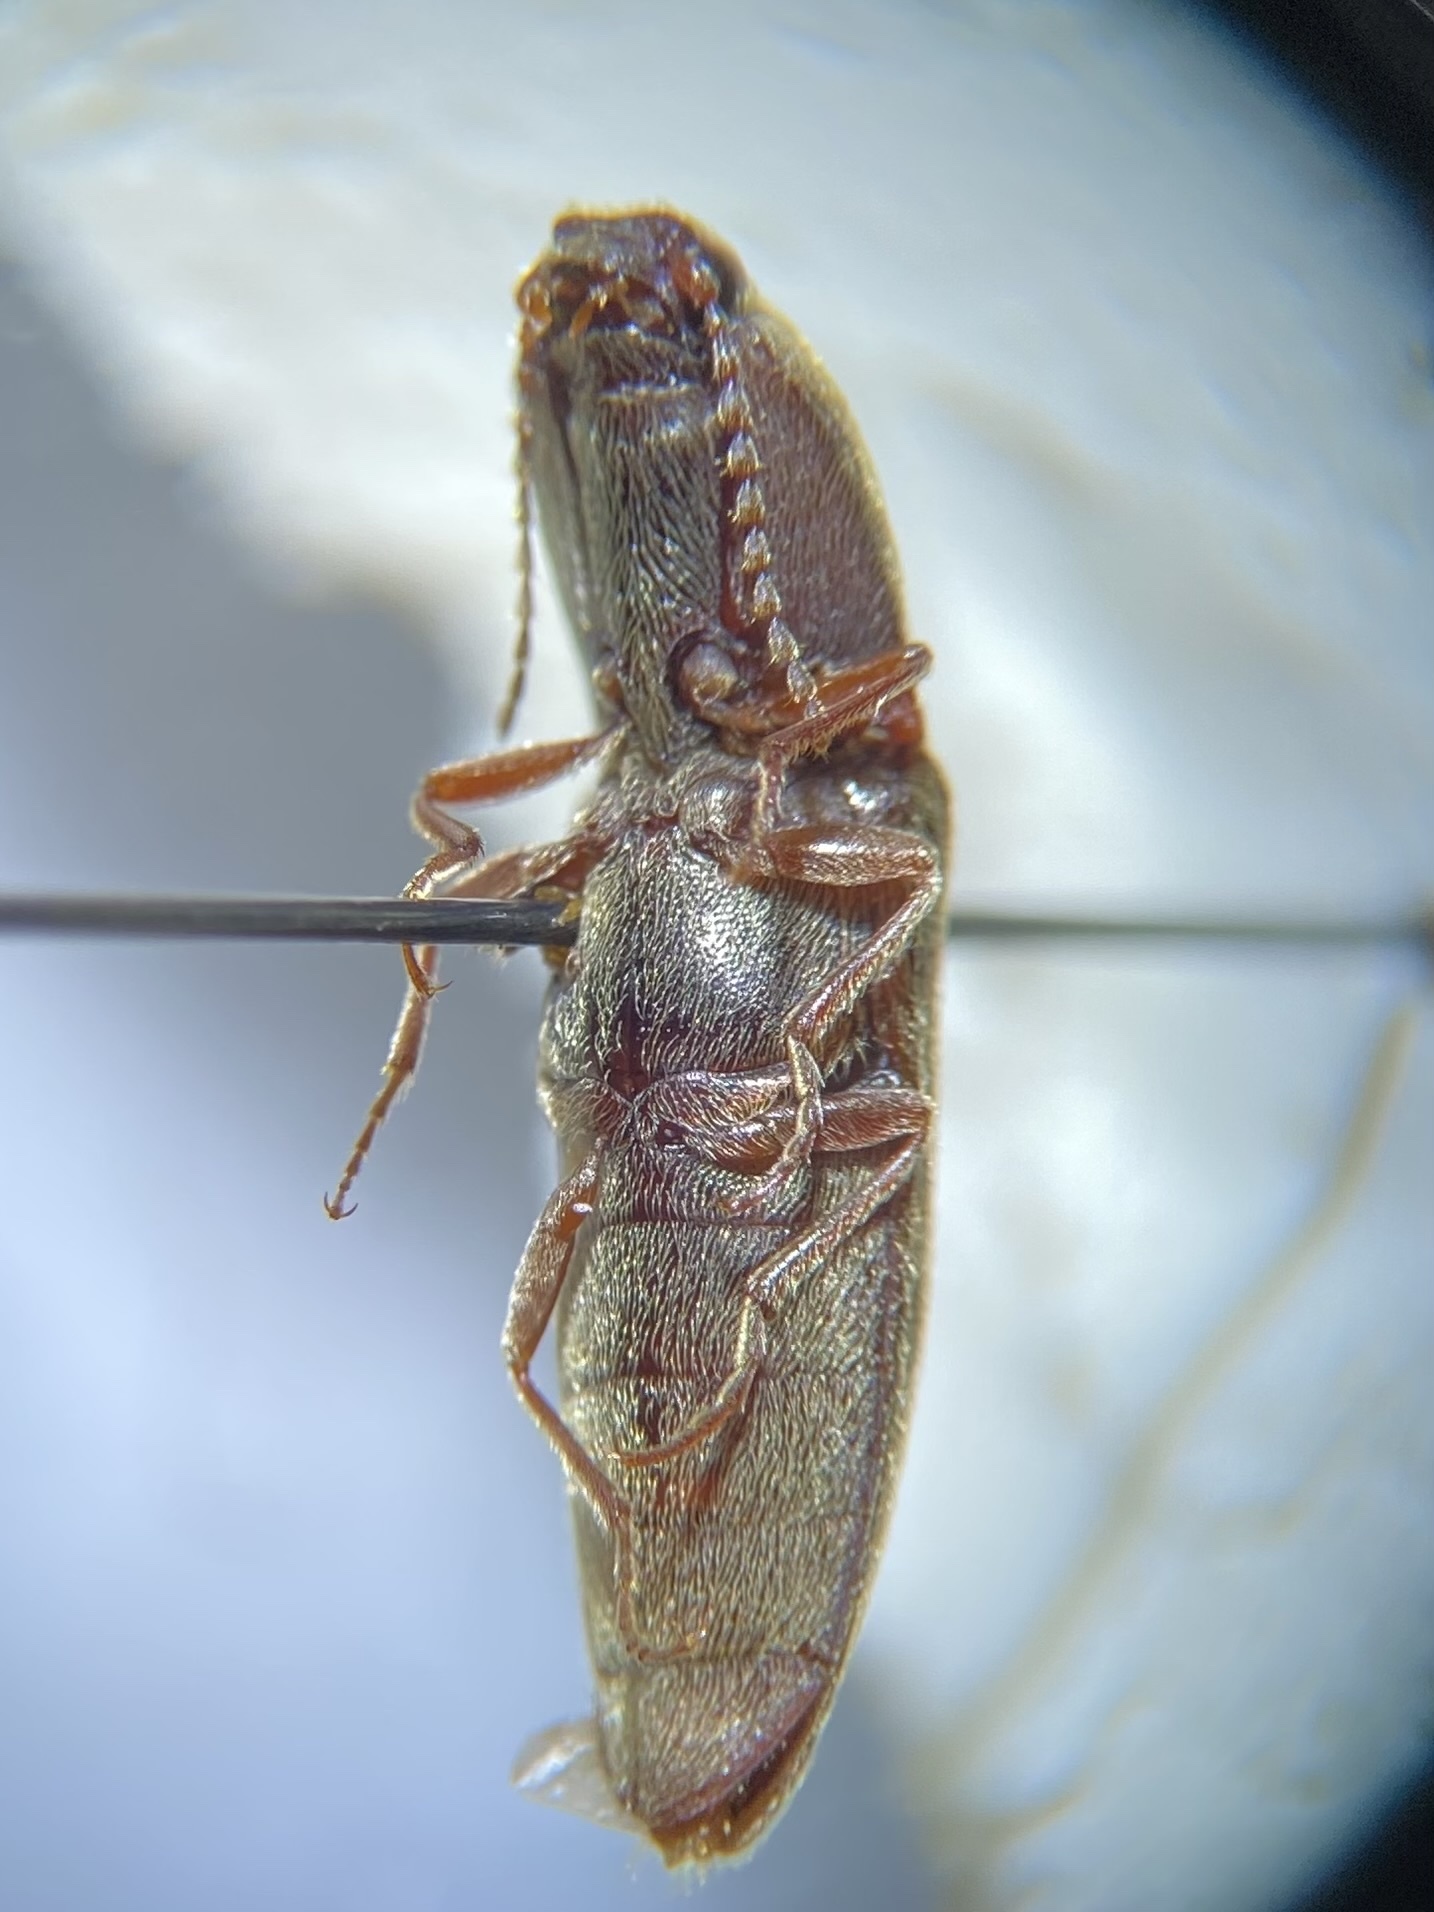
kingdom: Animalia
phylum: Arthropoda
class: Insecta
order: Coleoptera
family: Elateridae
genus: Gambrinus
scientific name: Gambrinus griseus
